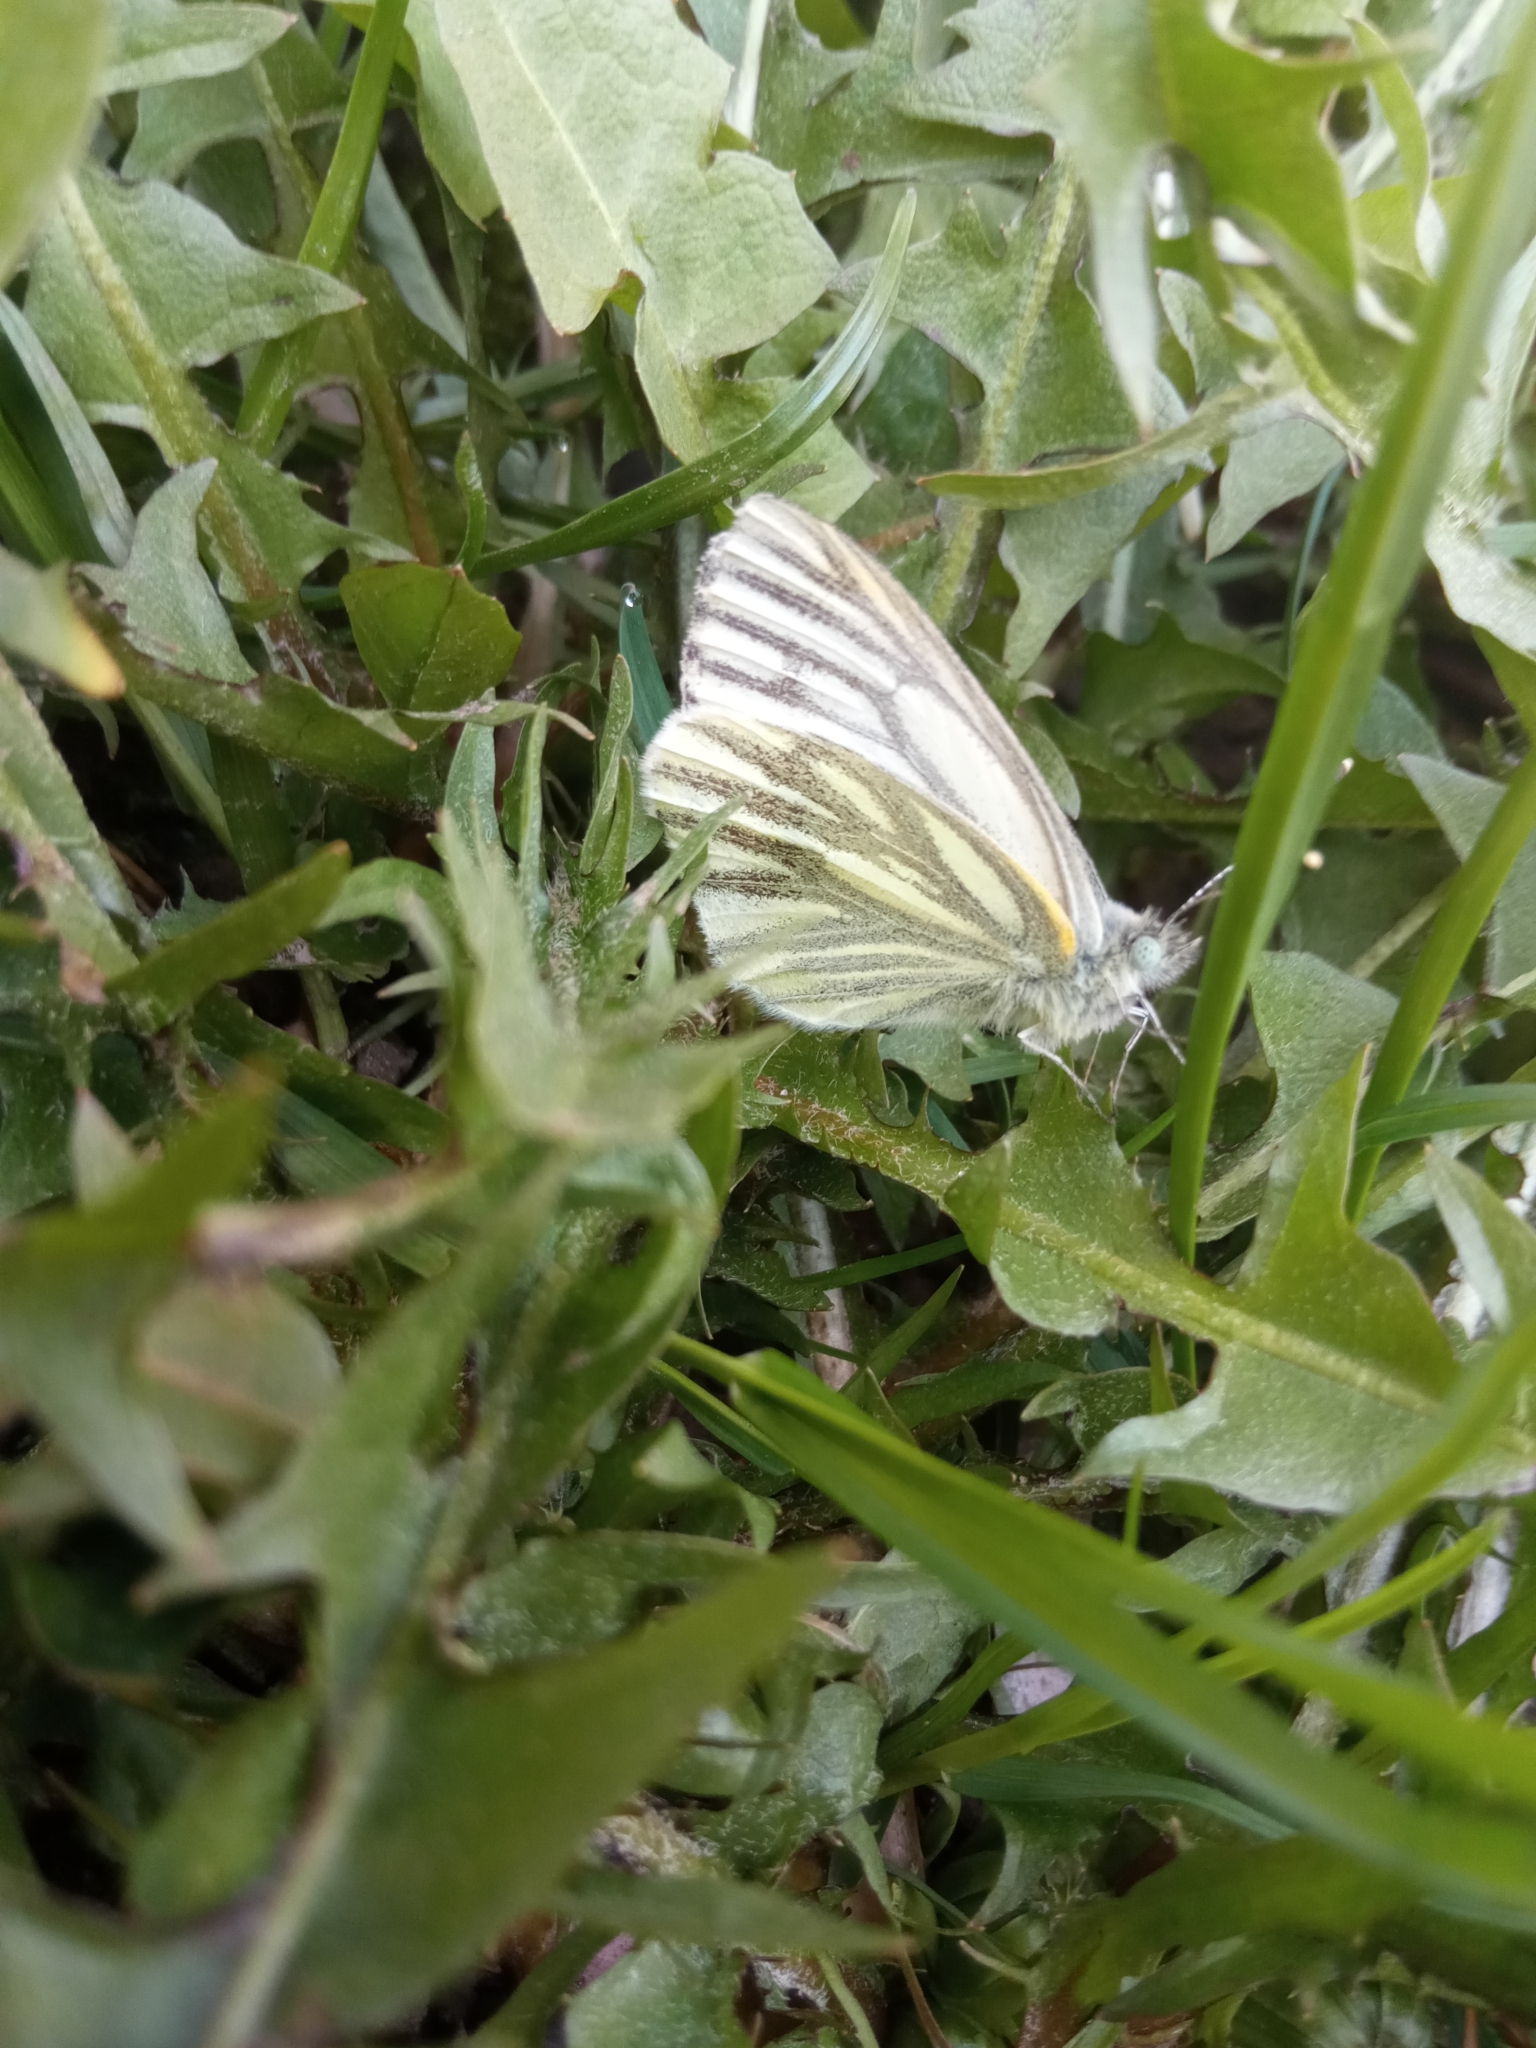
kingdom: Animalia
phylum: Arthropoda
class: Insecta
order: Lepidoptera
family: Pieridae
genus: Pieris
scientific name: Pieris napi
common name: Green-veined white
